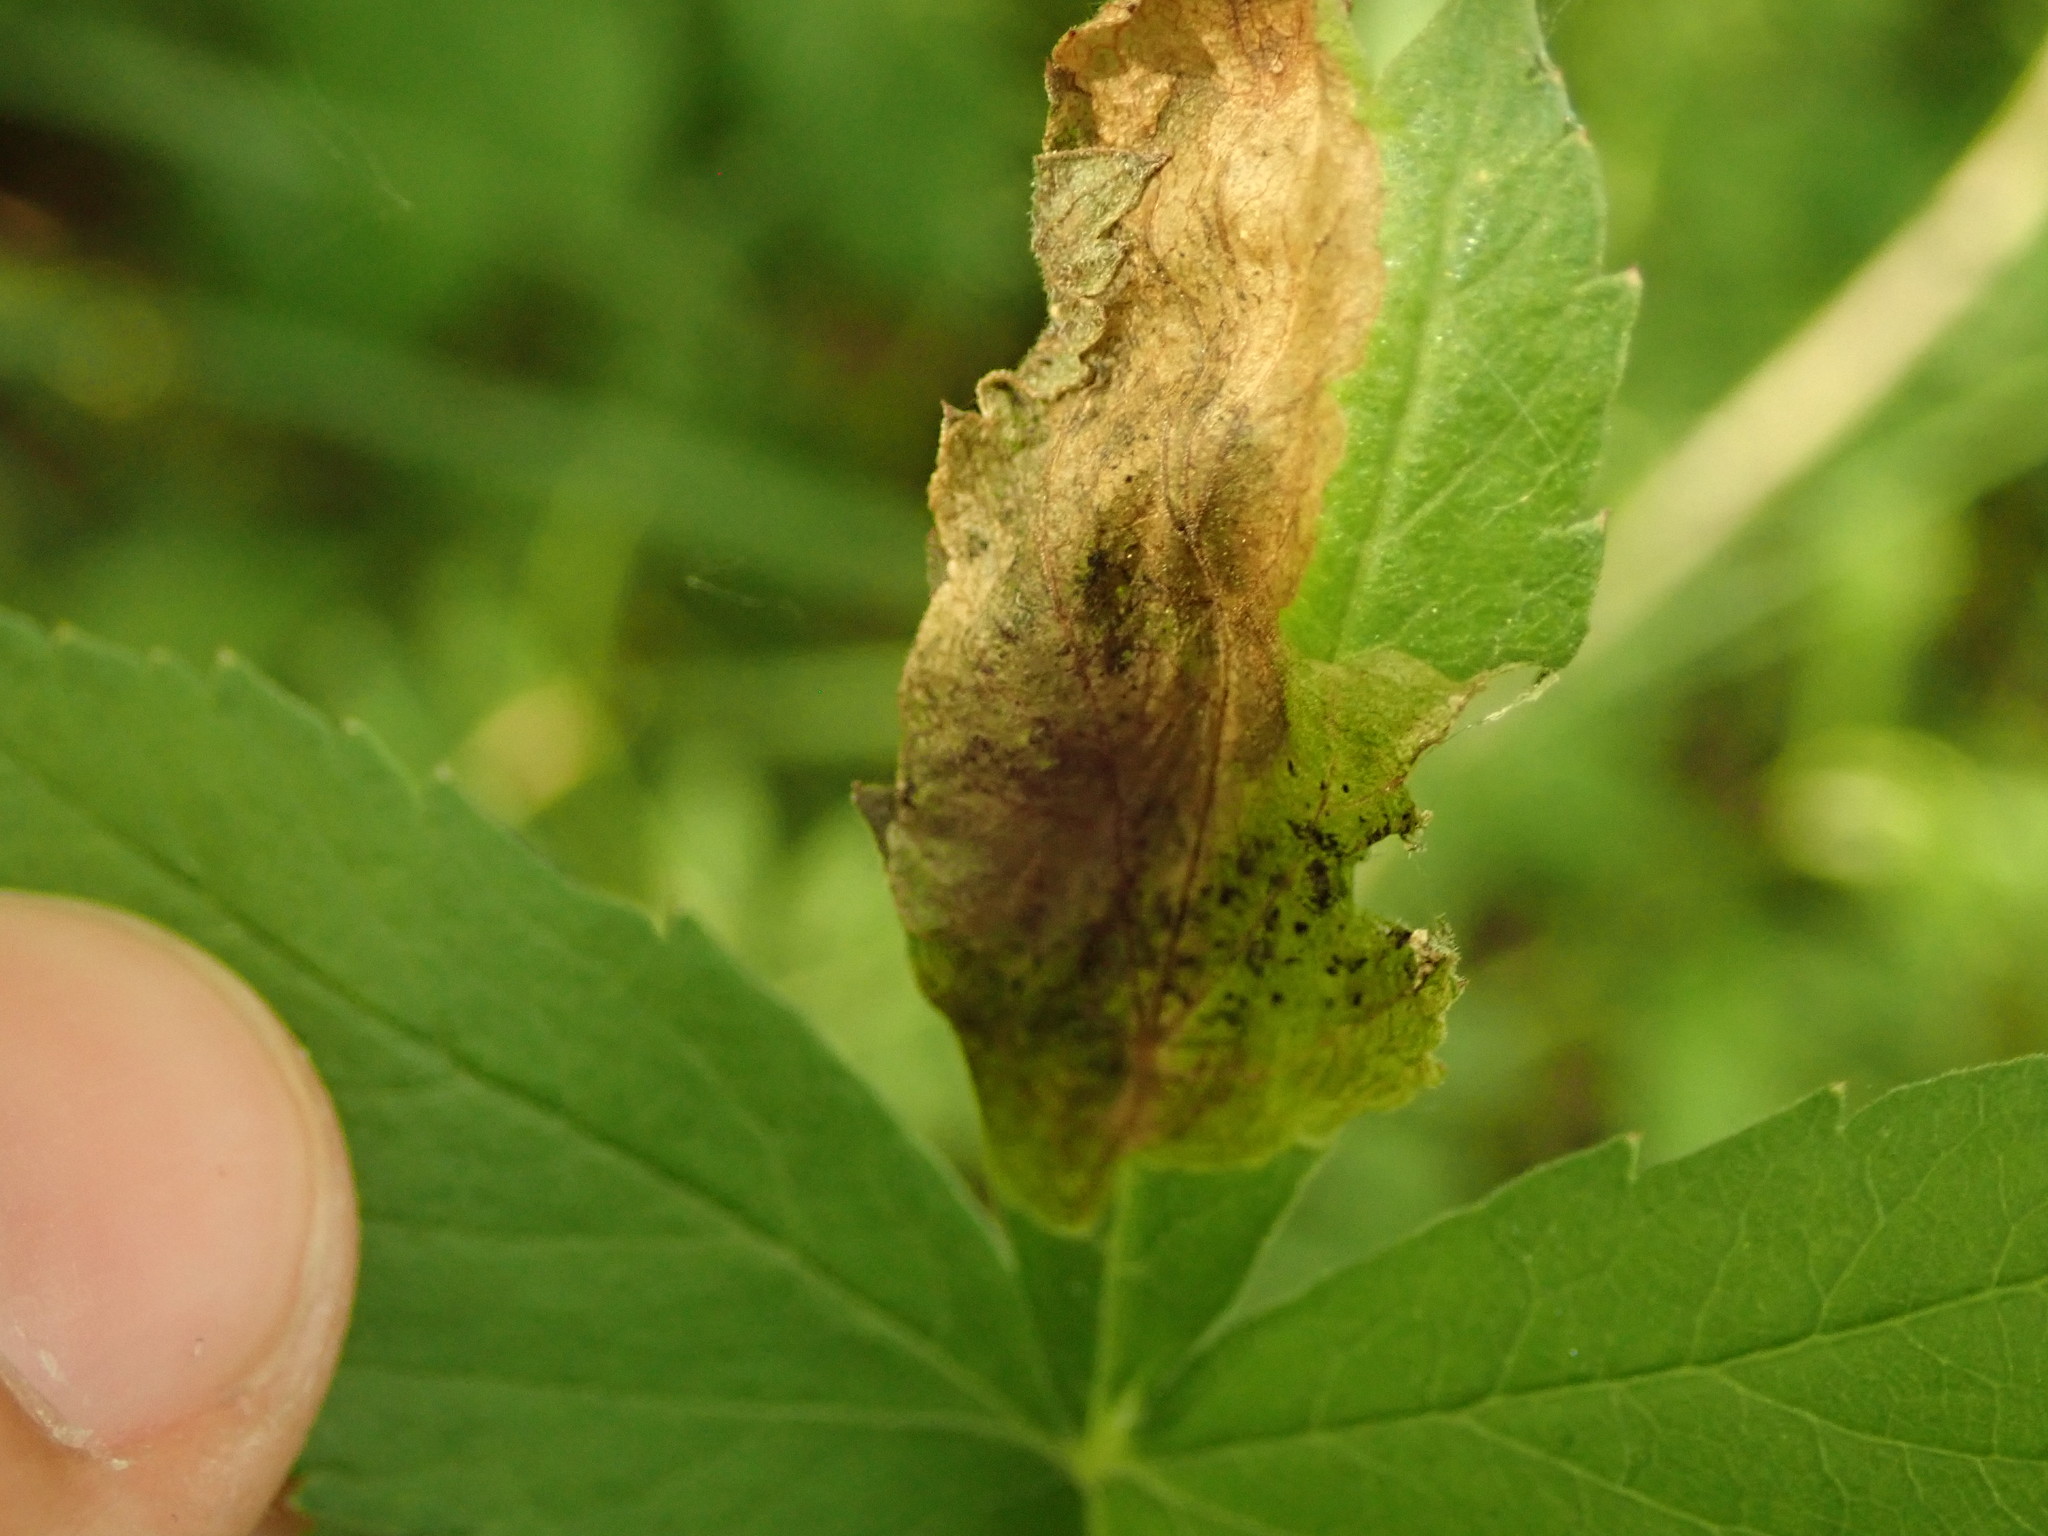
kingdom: Animalia
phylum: Arthropoda
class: Insecta
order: Diptera
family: Tephritidae
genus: Euleia
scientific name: Euleia fratria
